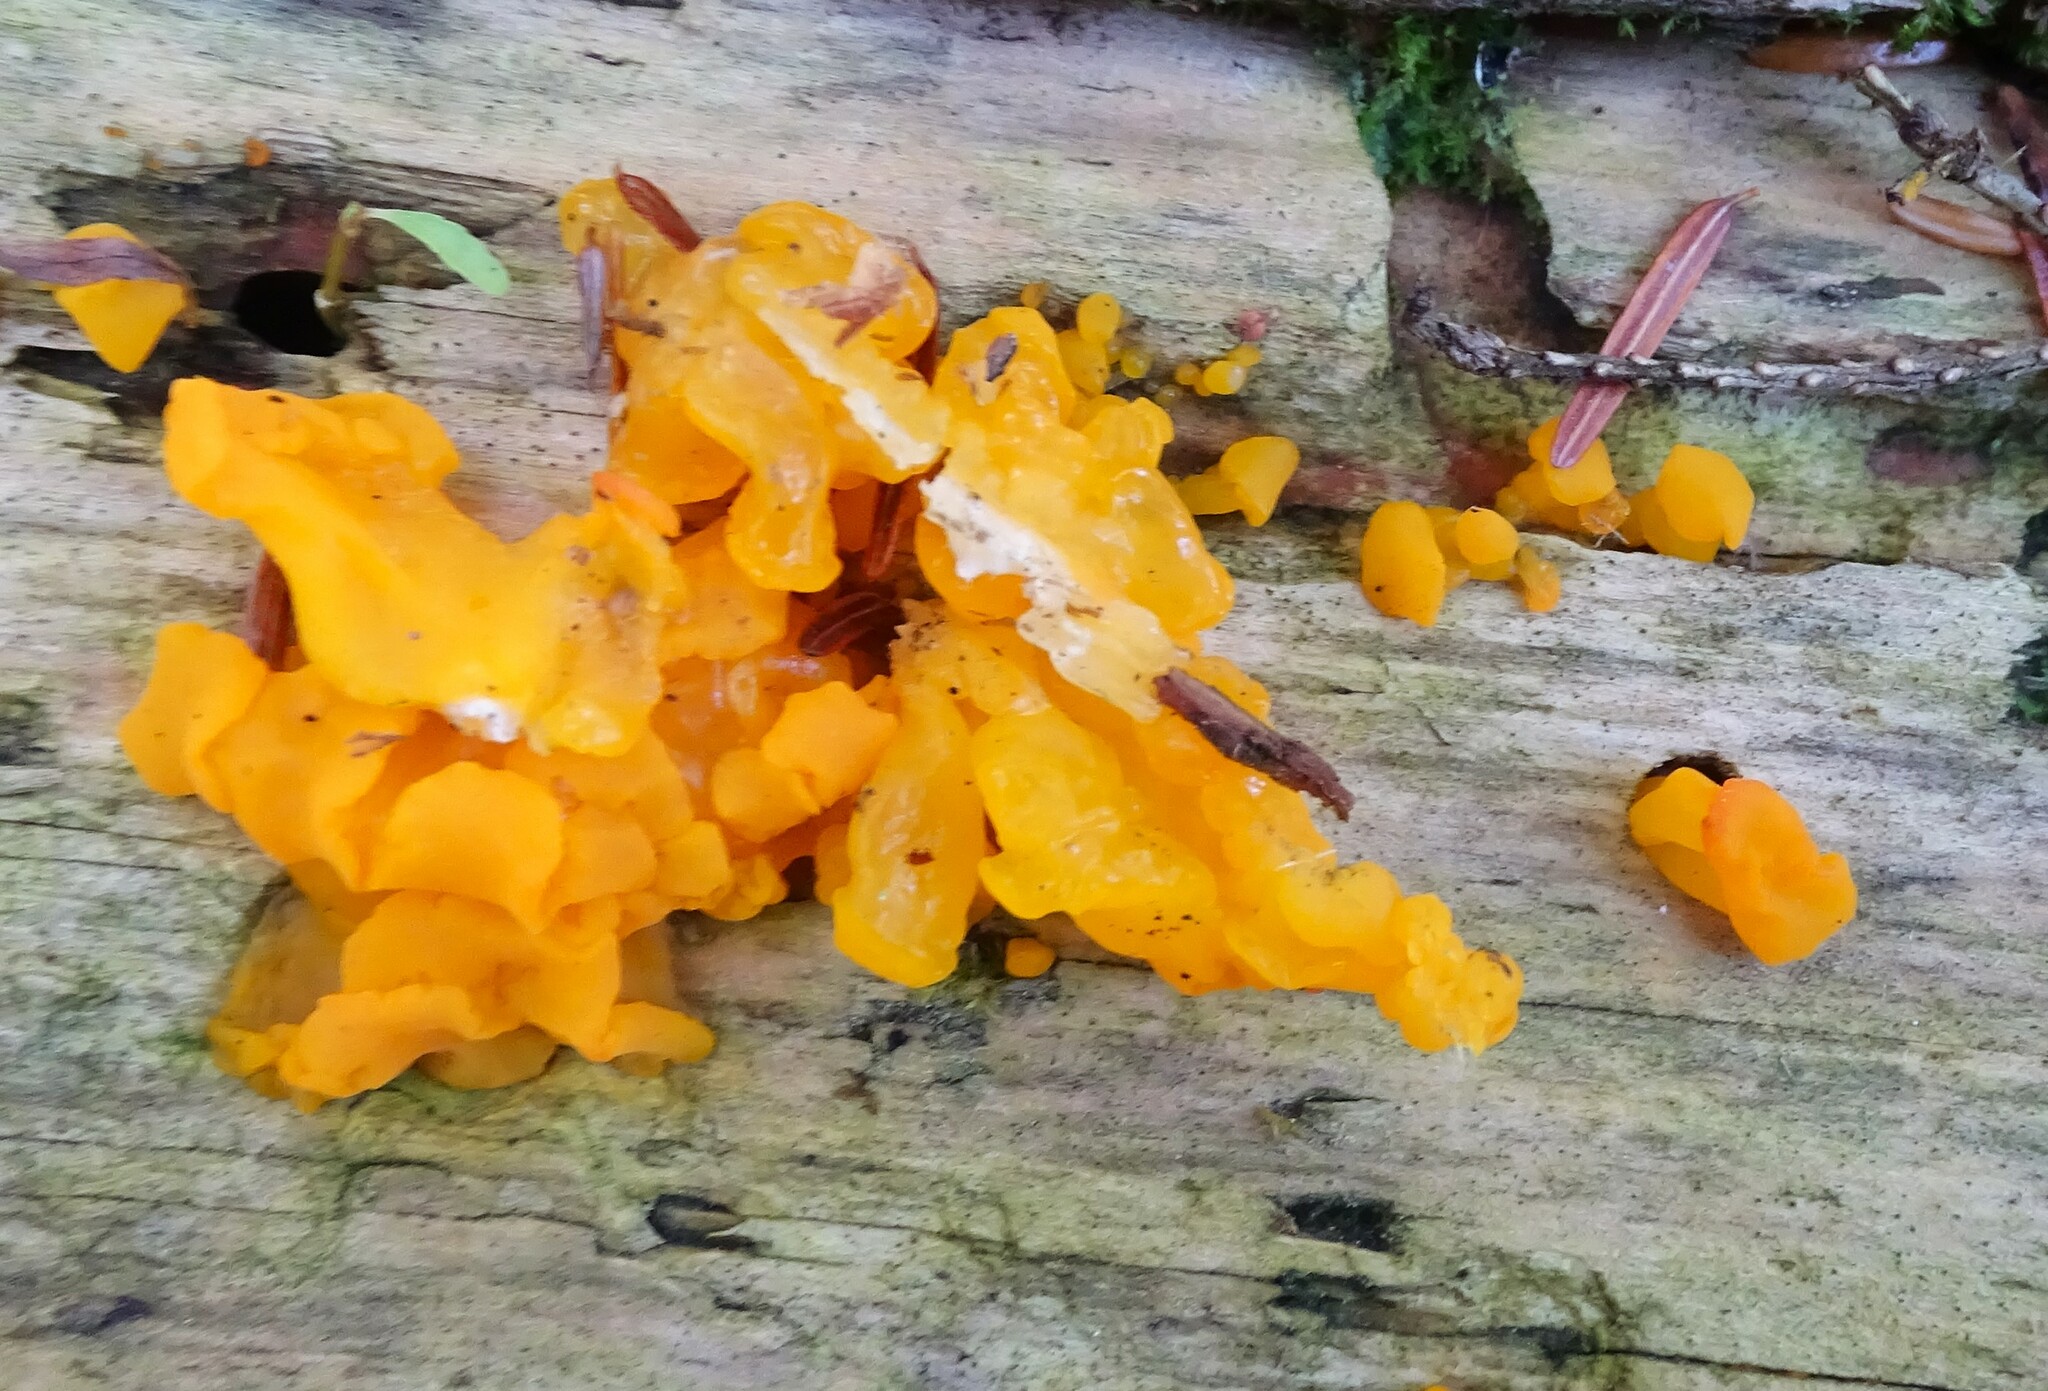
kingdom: Fungi
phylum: Basidiomycota
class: Dacrymycetes
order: Dacrymycetales
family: Dacrymycetaceae
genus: Dacrymyces
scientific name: Dacrymyces chrysospermus
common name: Orange jelly spot
